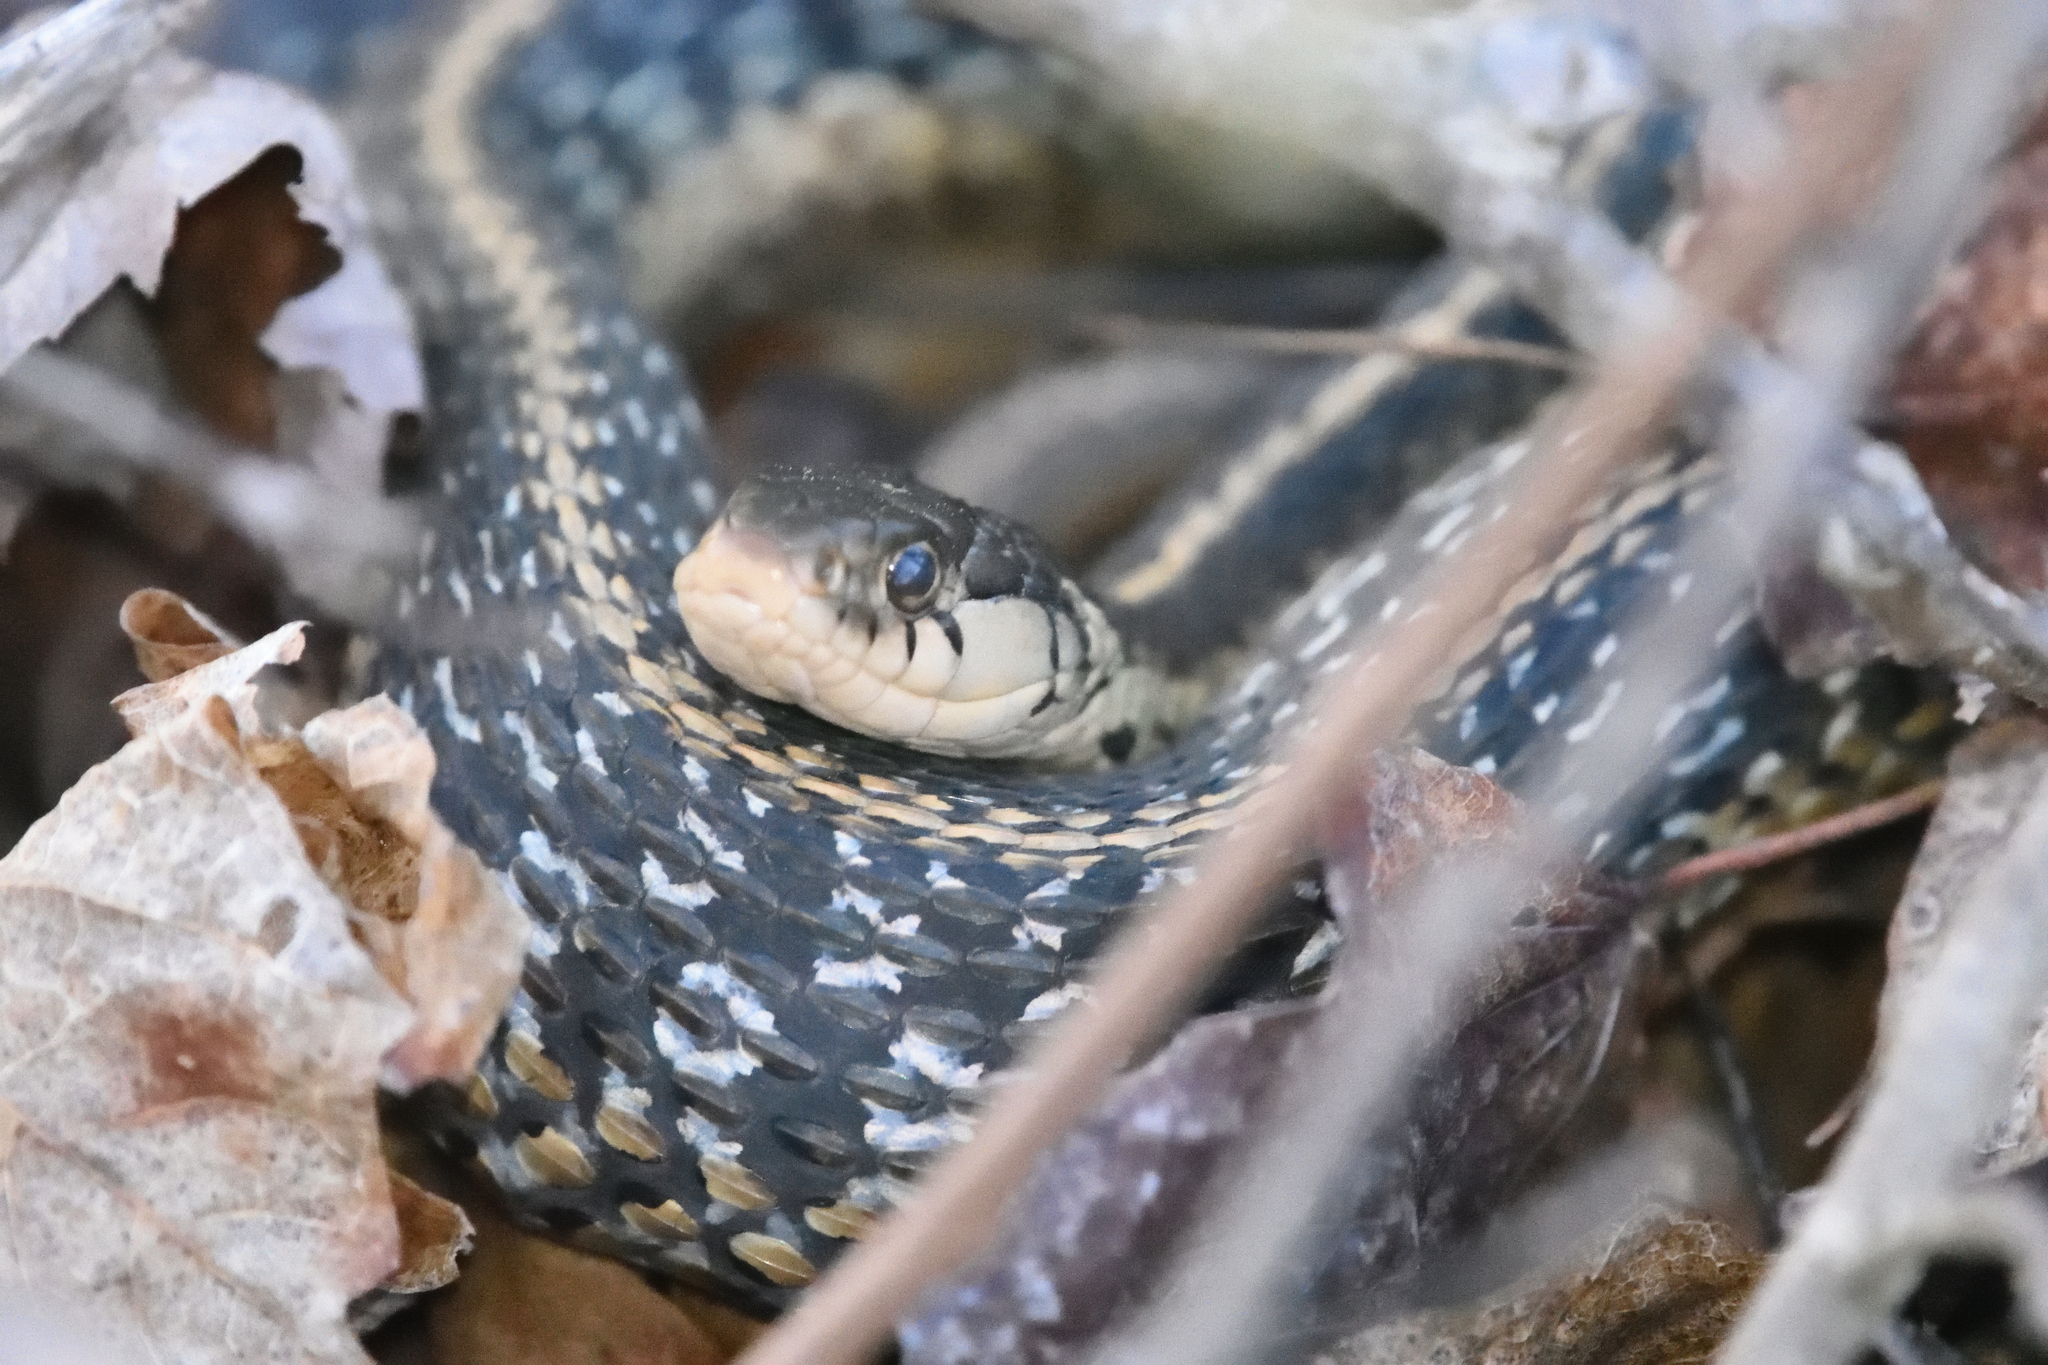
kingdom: Animalia
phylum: Chordata
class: Squamata
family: Colubridae
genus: Thamnophis
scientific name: Thamnophis sirtalis
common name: Common garter snake
